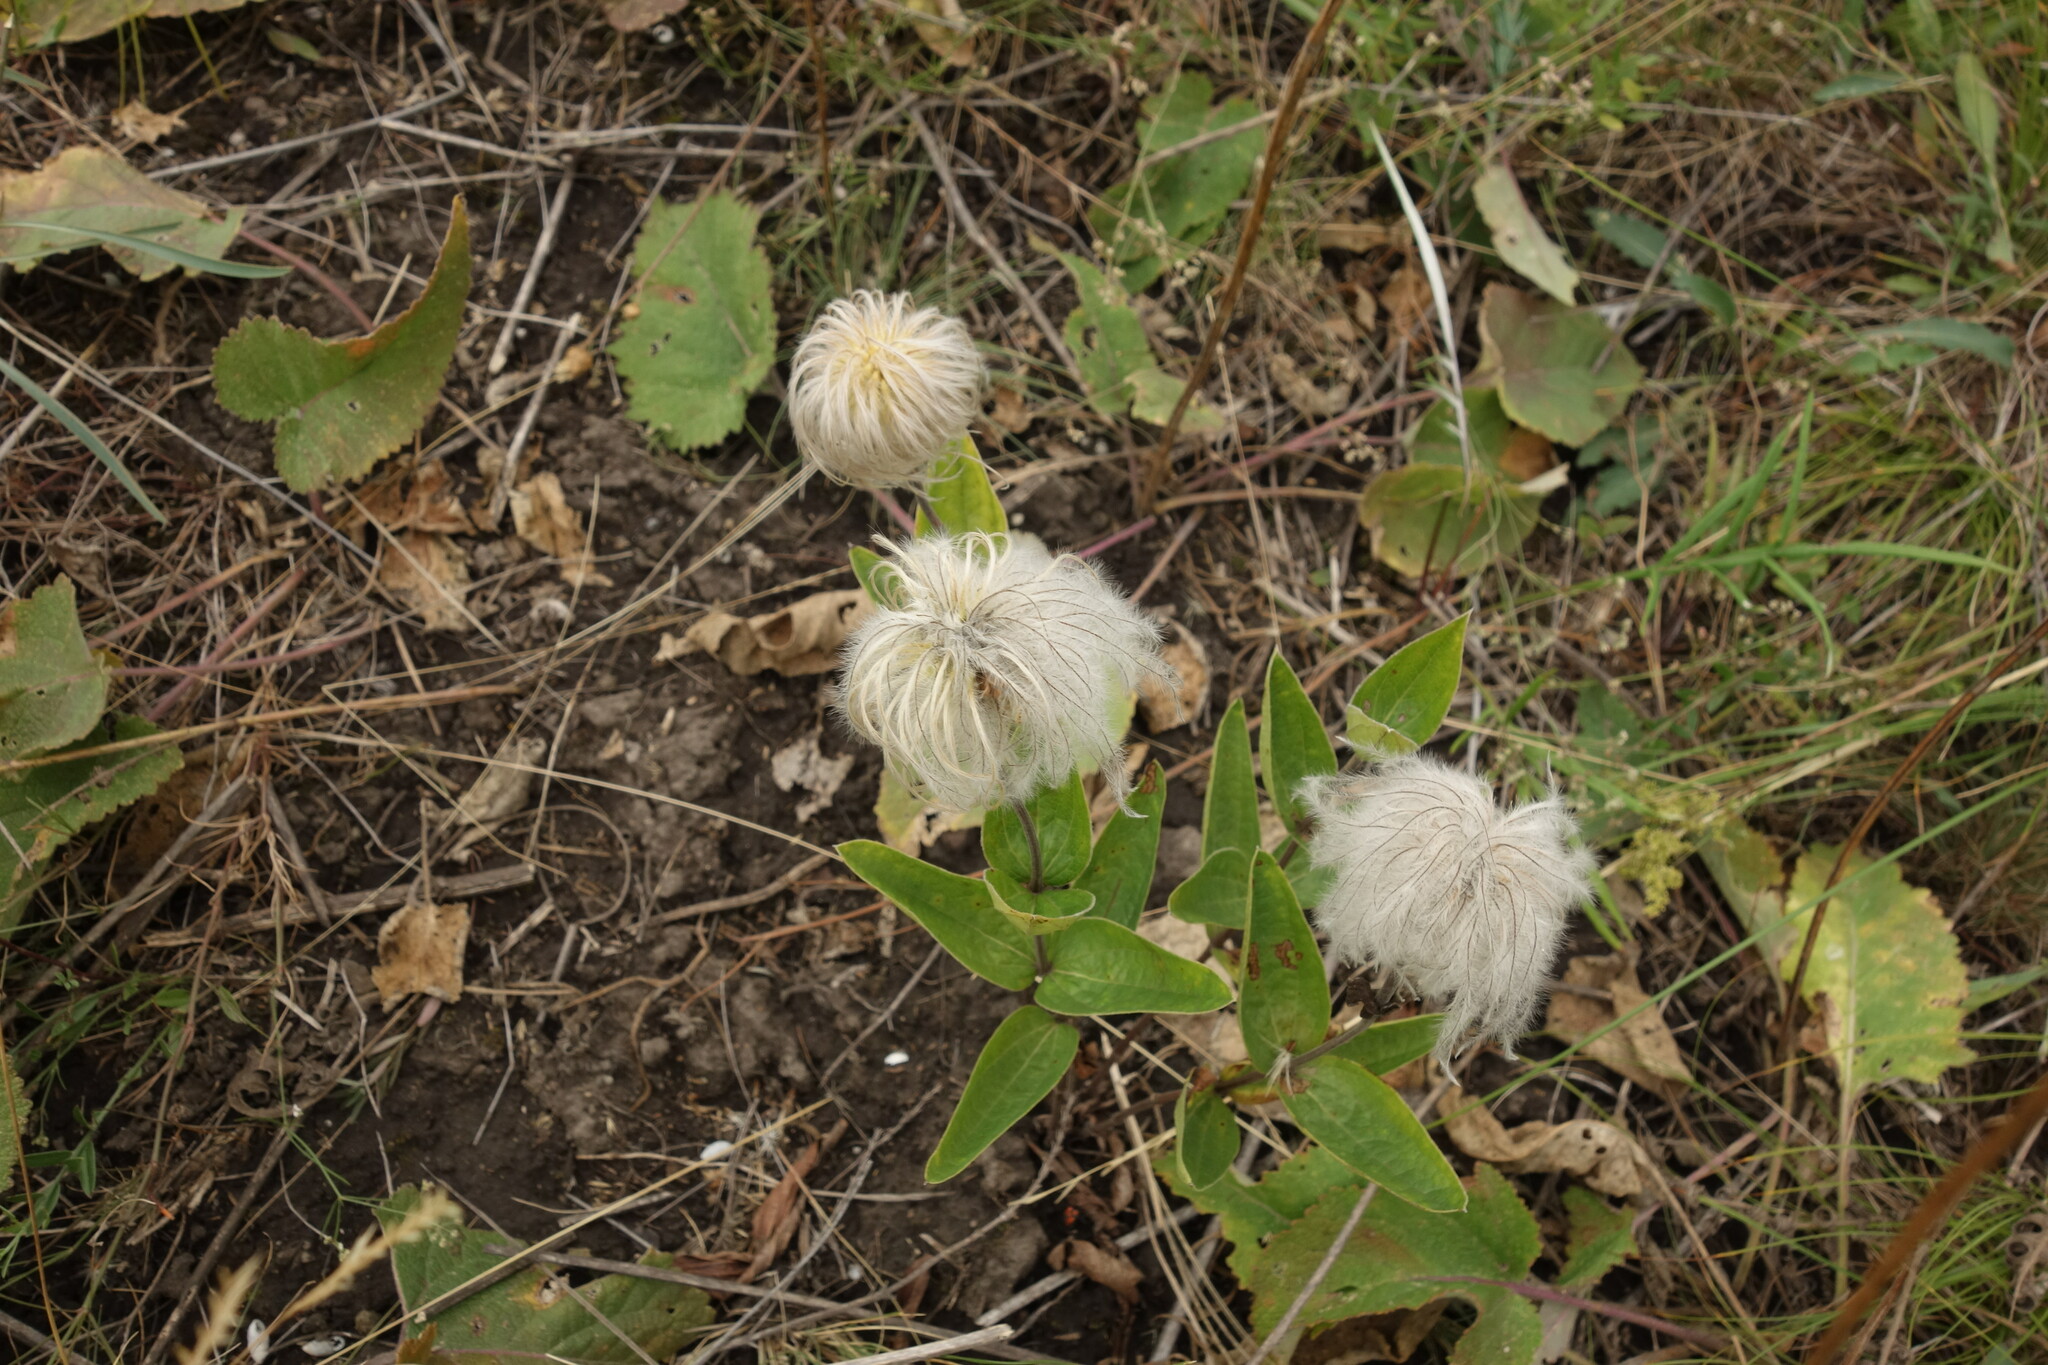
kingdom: Plantae
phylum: Tracheophyta
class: Magnoliopsida
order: Ranunculales
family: Ranunculaceae
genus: Clematis
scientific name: Clematis integrifolia
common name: Solitary clematis
